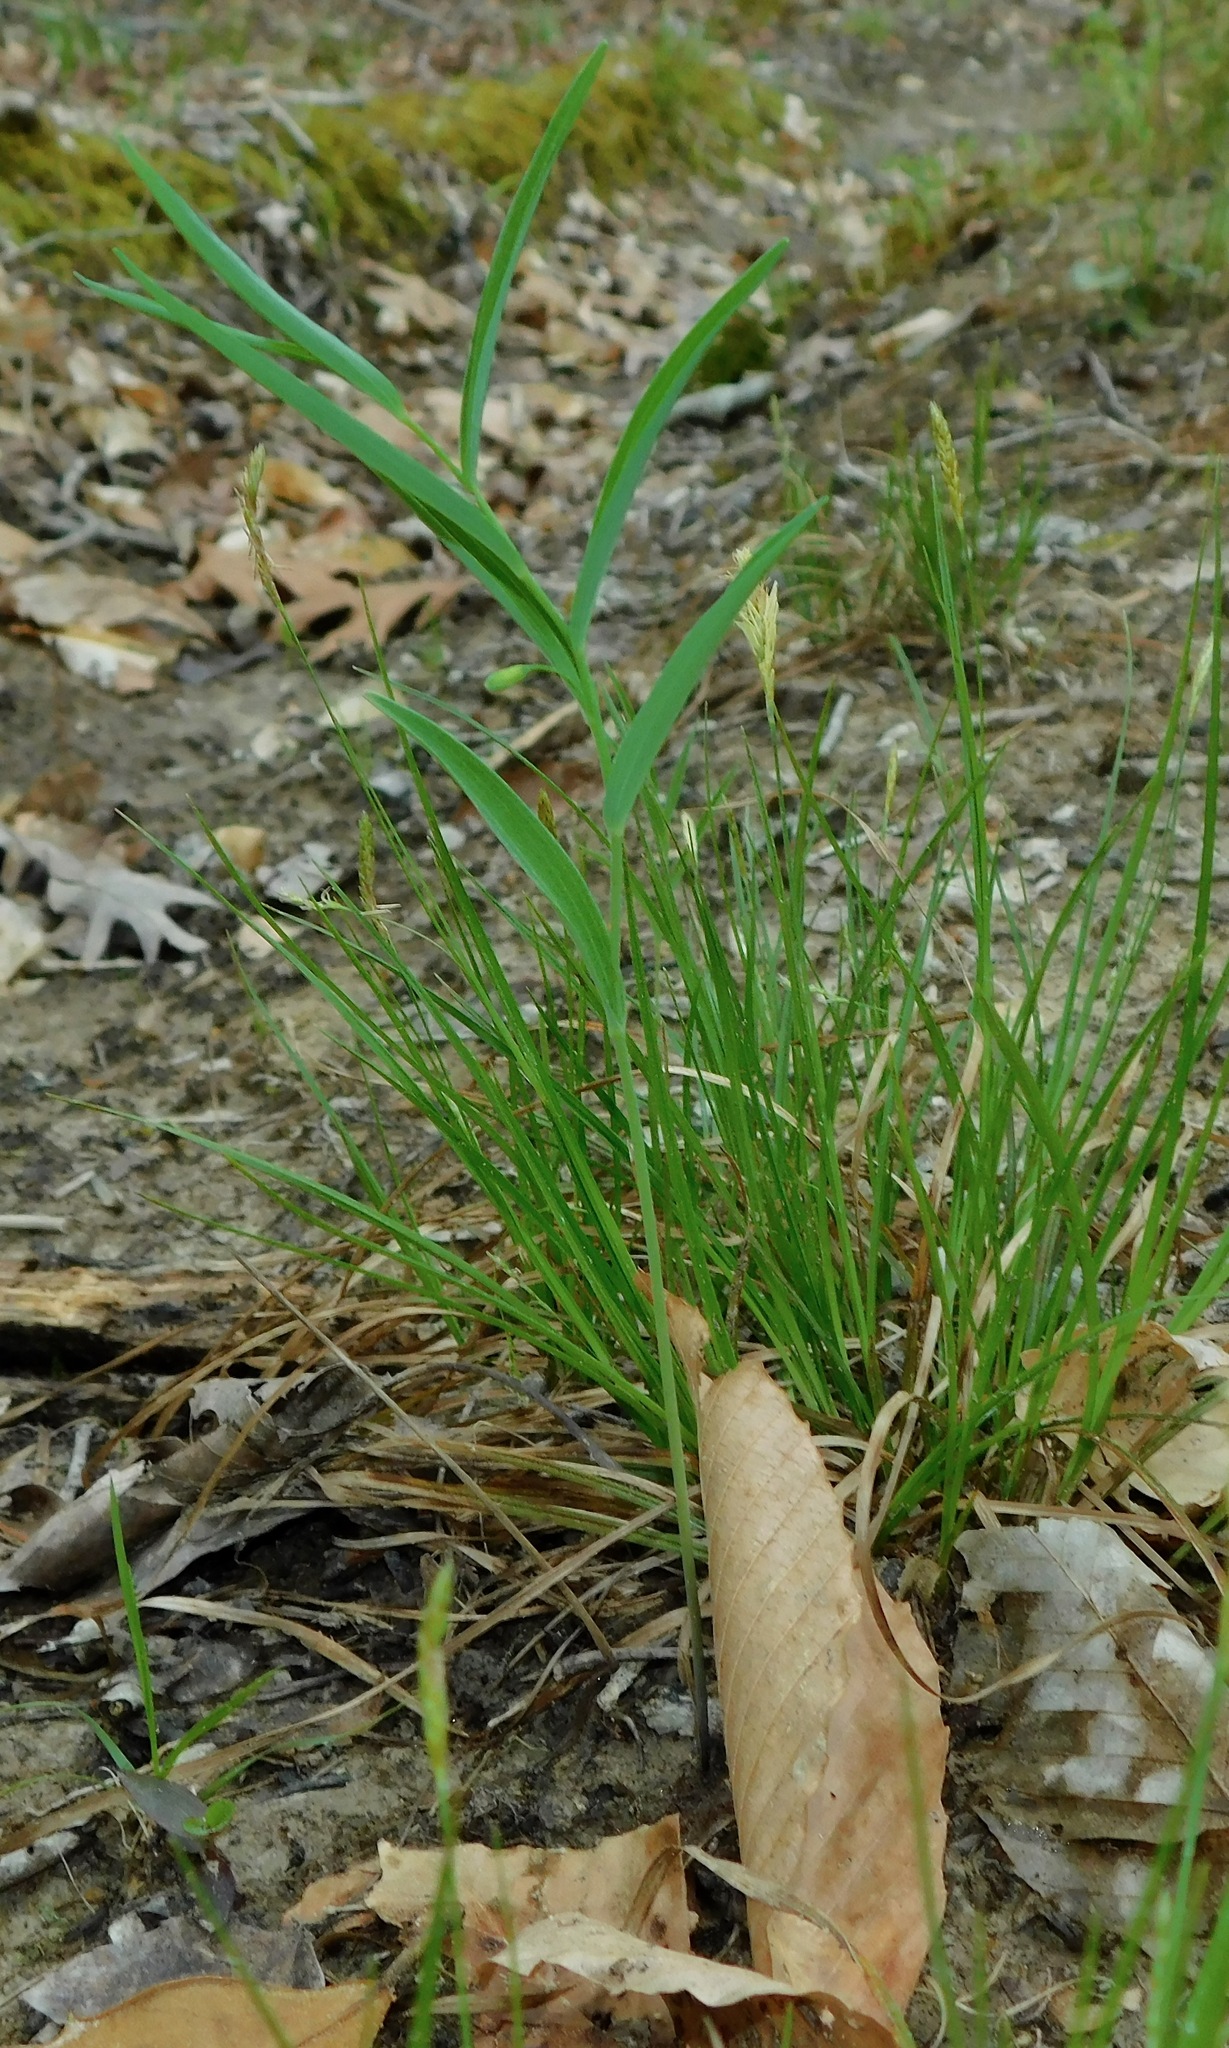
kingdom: Plantae
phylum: Tracheophyta
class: Liliopsida
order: Asparagales
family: Asparagaceae
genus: Polygonatum
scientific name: Polygonatum biflorum
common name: American solomon's-seal
